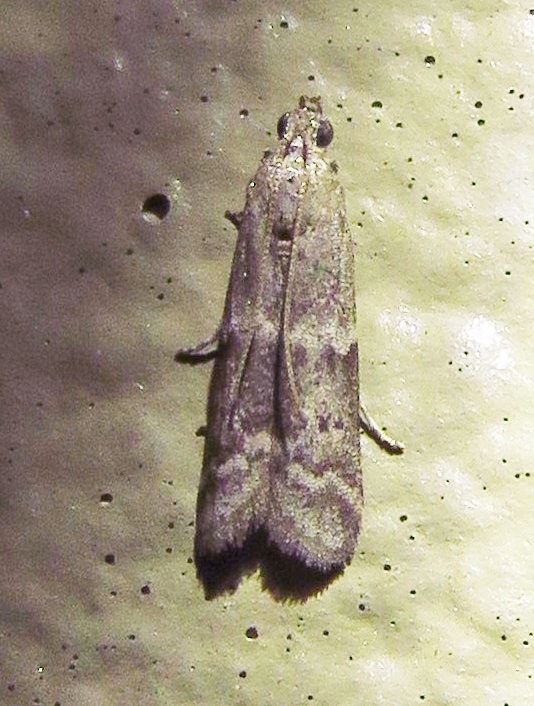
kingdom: Animalia
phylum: Arthropoda
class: Insecta
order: Lepidoptera
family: Pyralidae
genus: Eurythmia
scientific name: Eurythmia angulella
